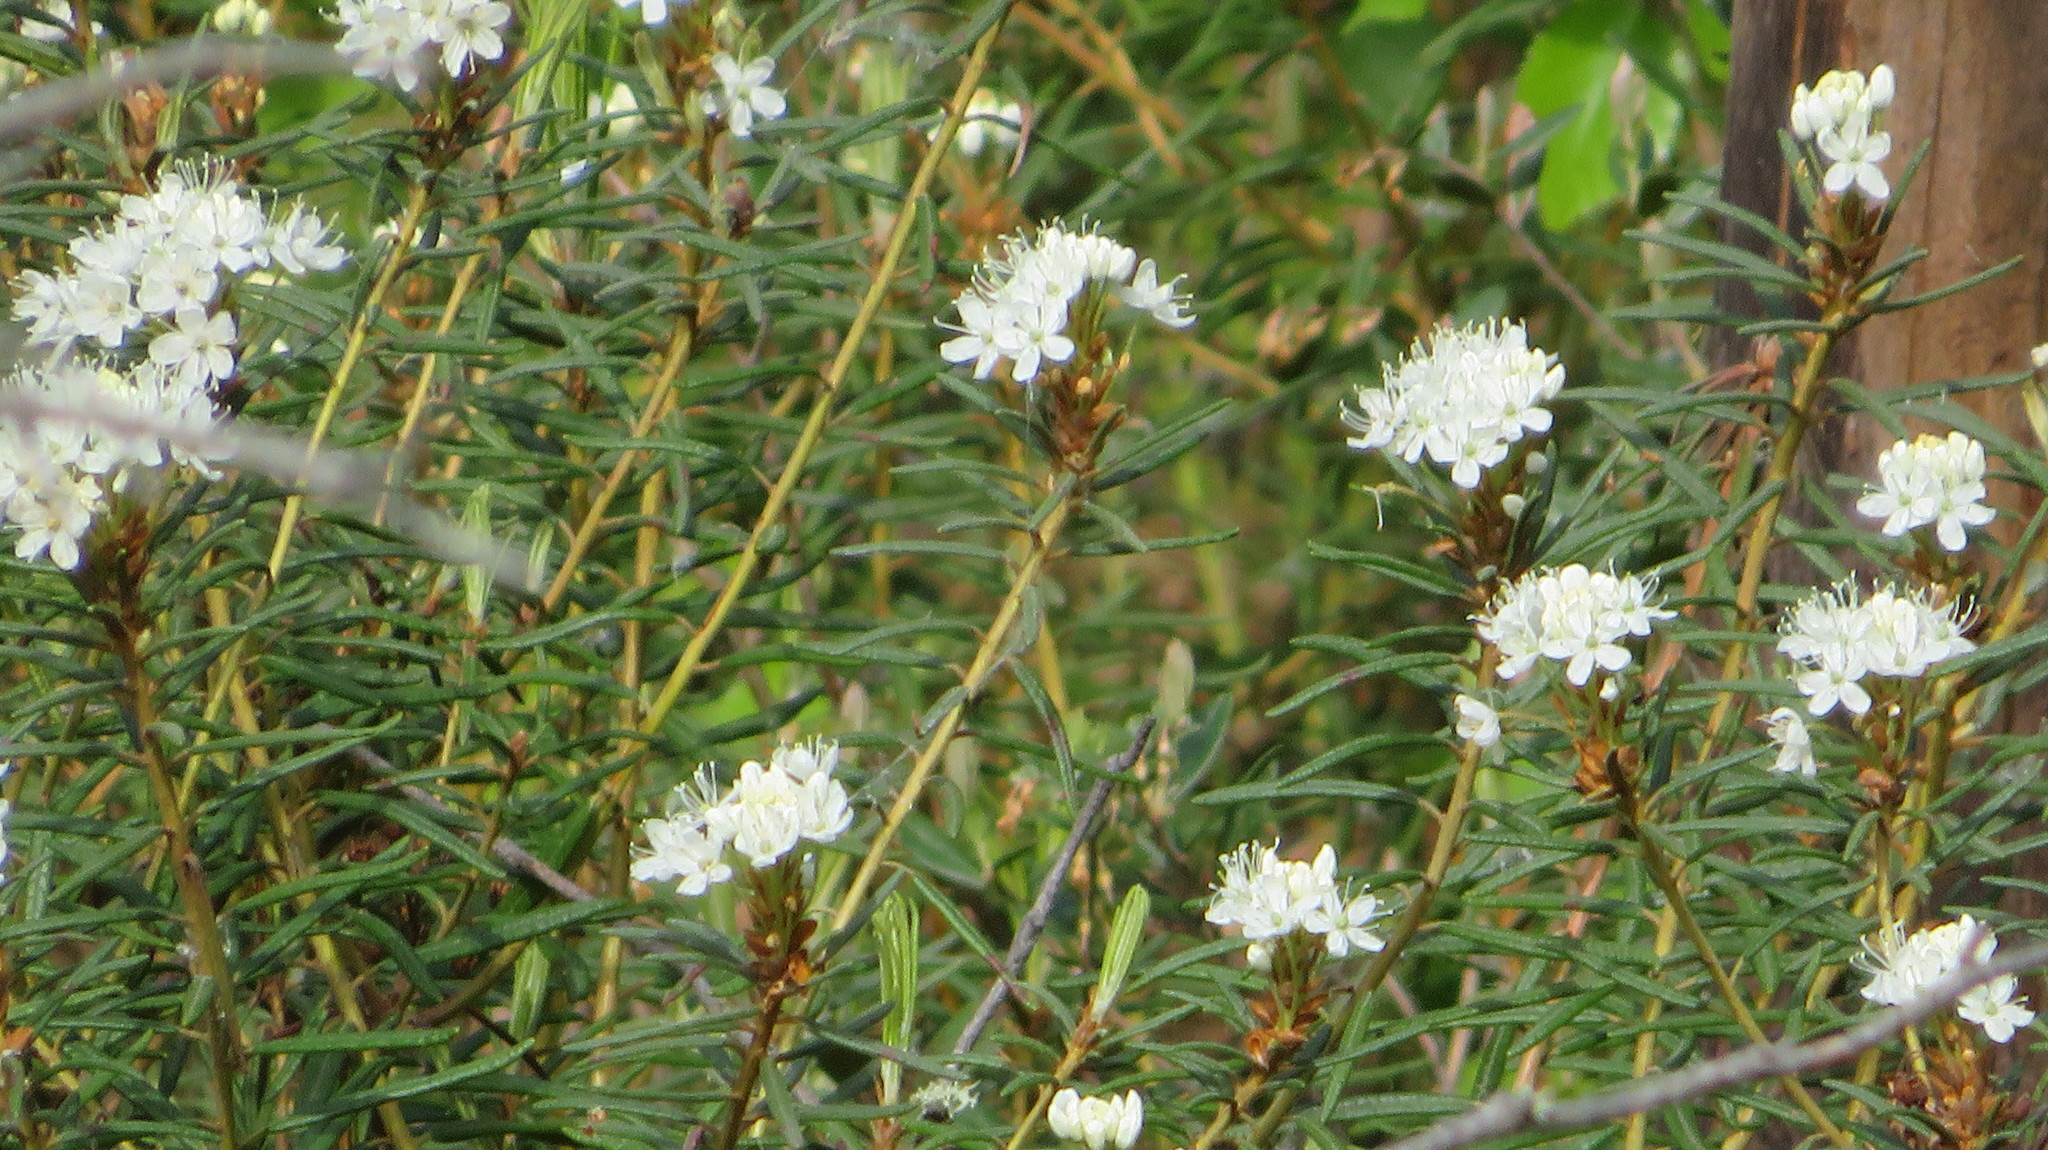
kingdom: Plantae
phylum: Tracheophyta
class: Magnoliopsida
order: Ericales
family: Ericaceae
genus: Rhododendron
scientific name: Rhododendron tomentosum
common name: Marsh labrador tea
